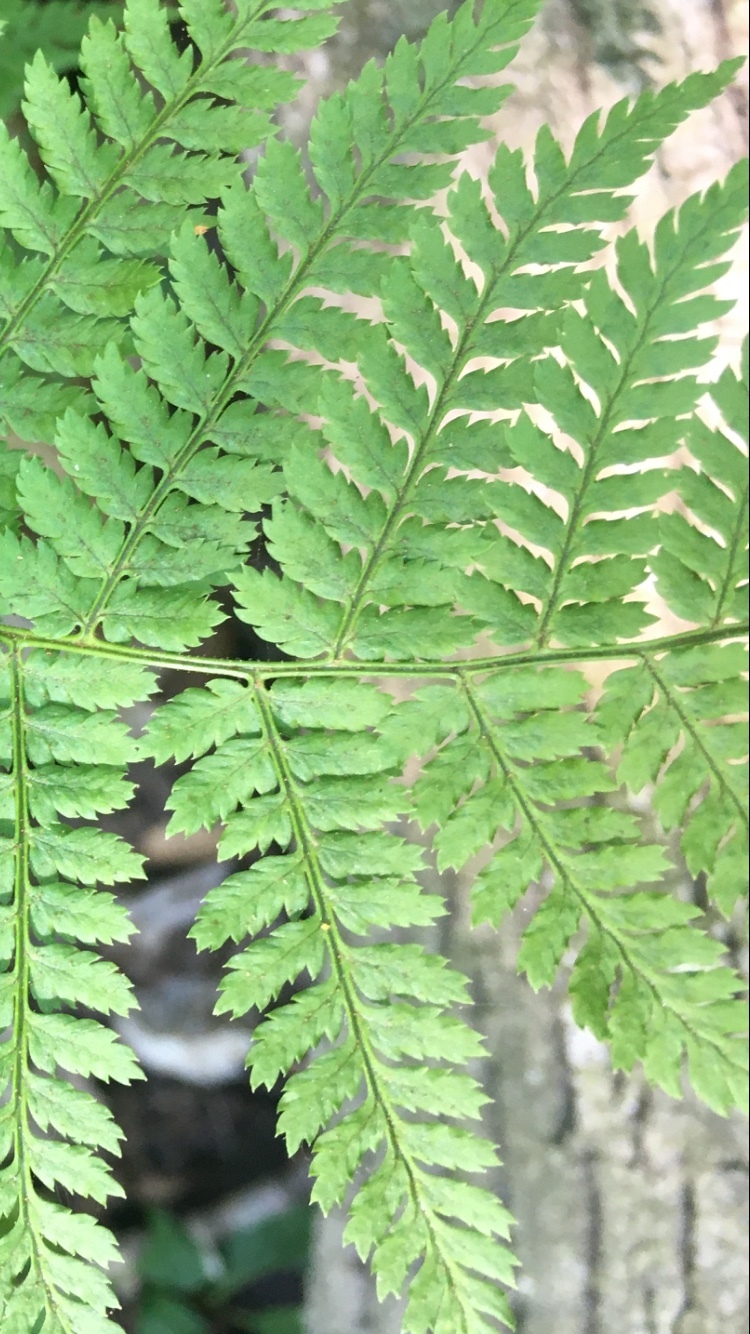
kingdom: Plantae
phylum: Tracheophyta
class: Polypodiopsida
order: Polypodiales
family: Dryopteridaceae
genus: Dryopteris
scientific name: Dryopteris intermedia
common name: Evergreen wood fern
